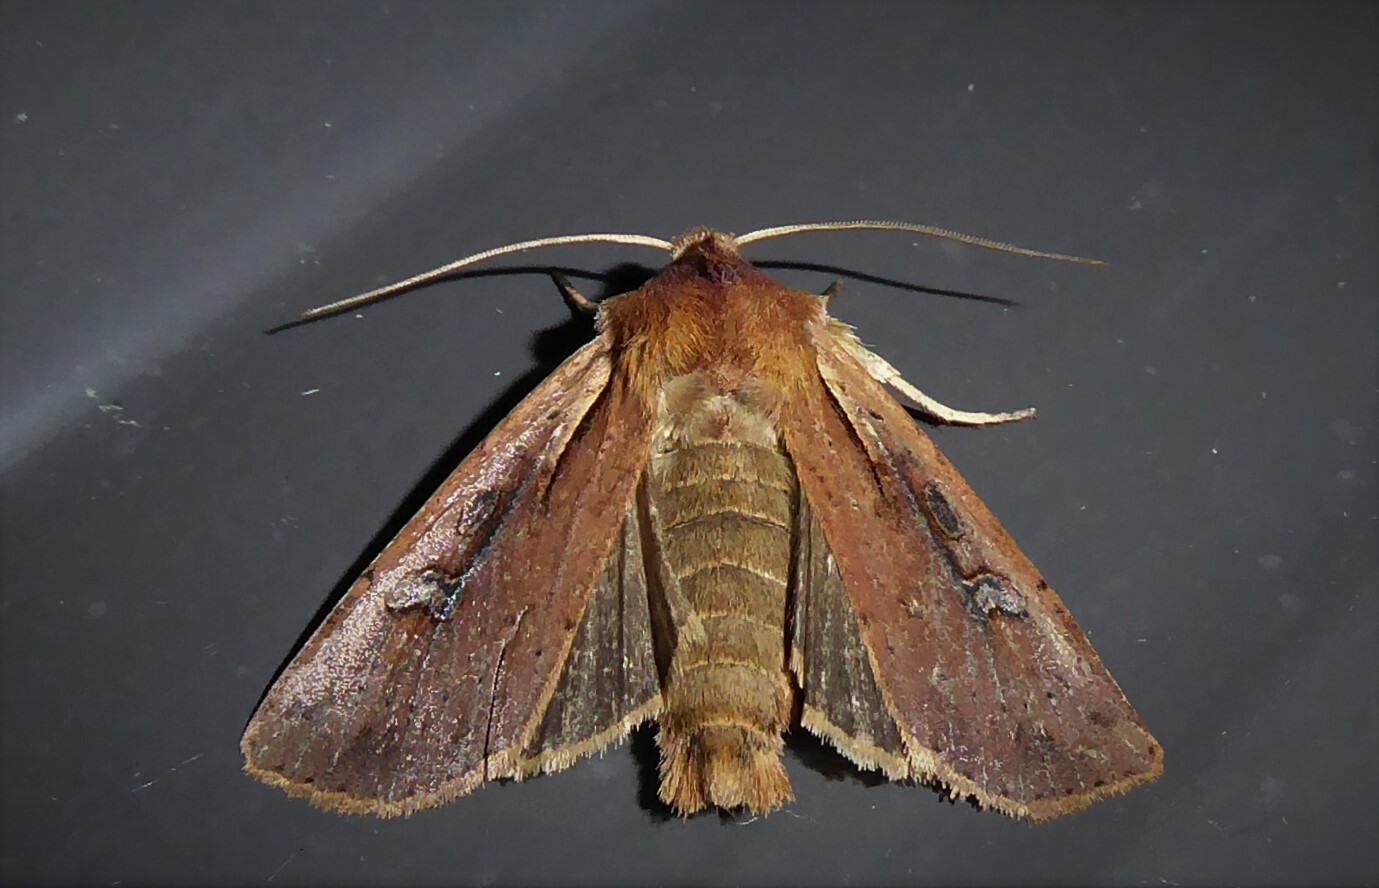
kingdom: Animalia
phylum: Arthropoda
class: Insecta
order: Lepidoptera
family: Noctuidae
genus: Ichneutica
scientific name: Ichneutica atristriga
